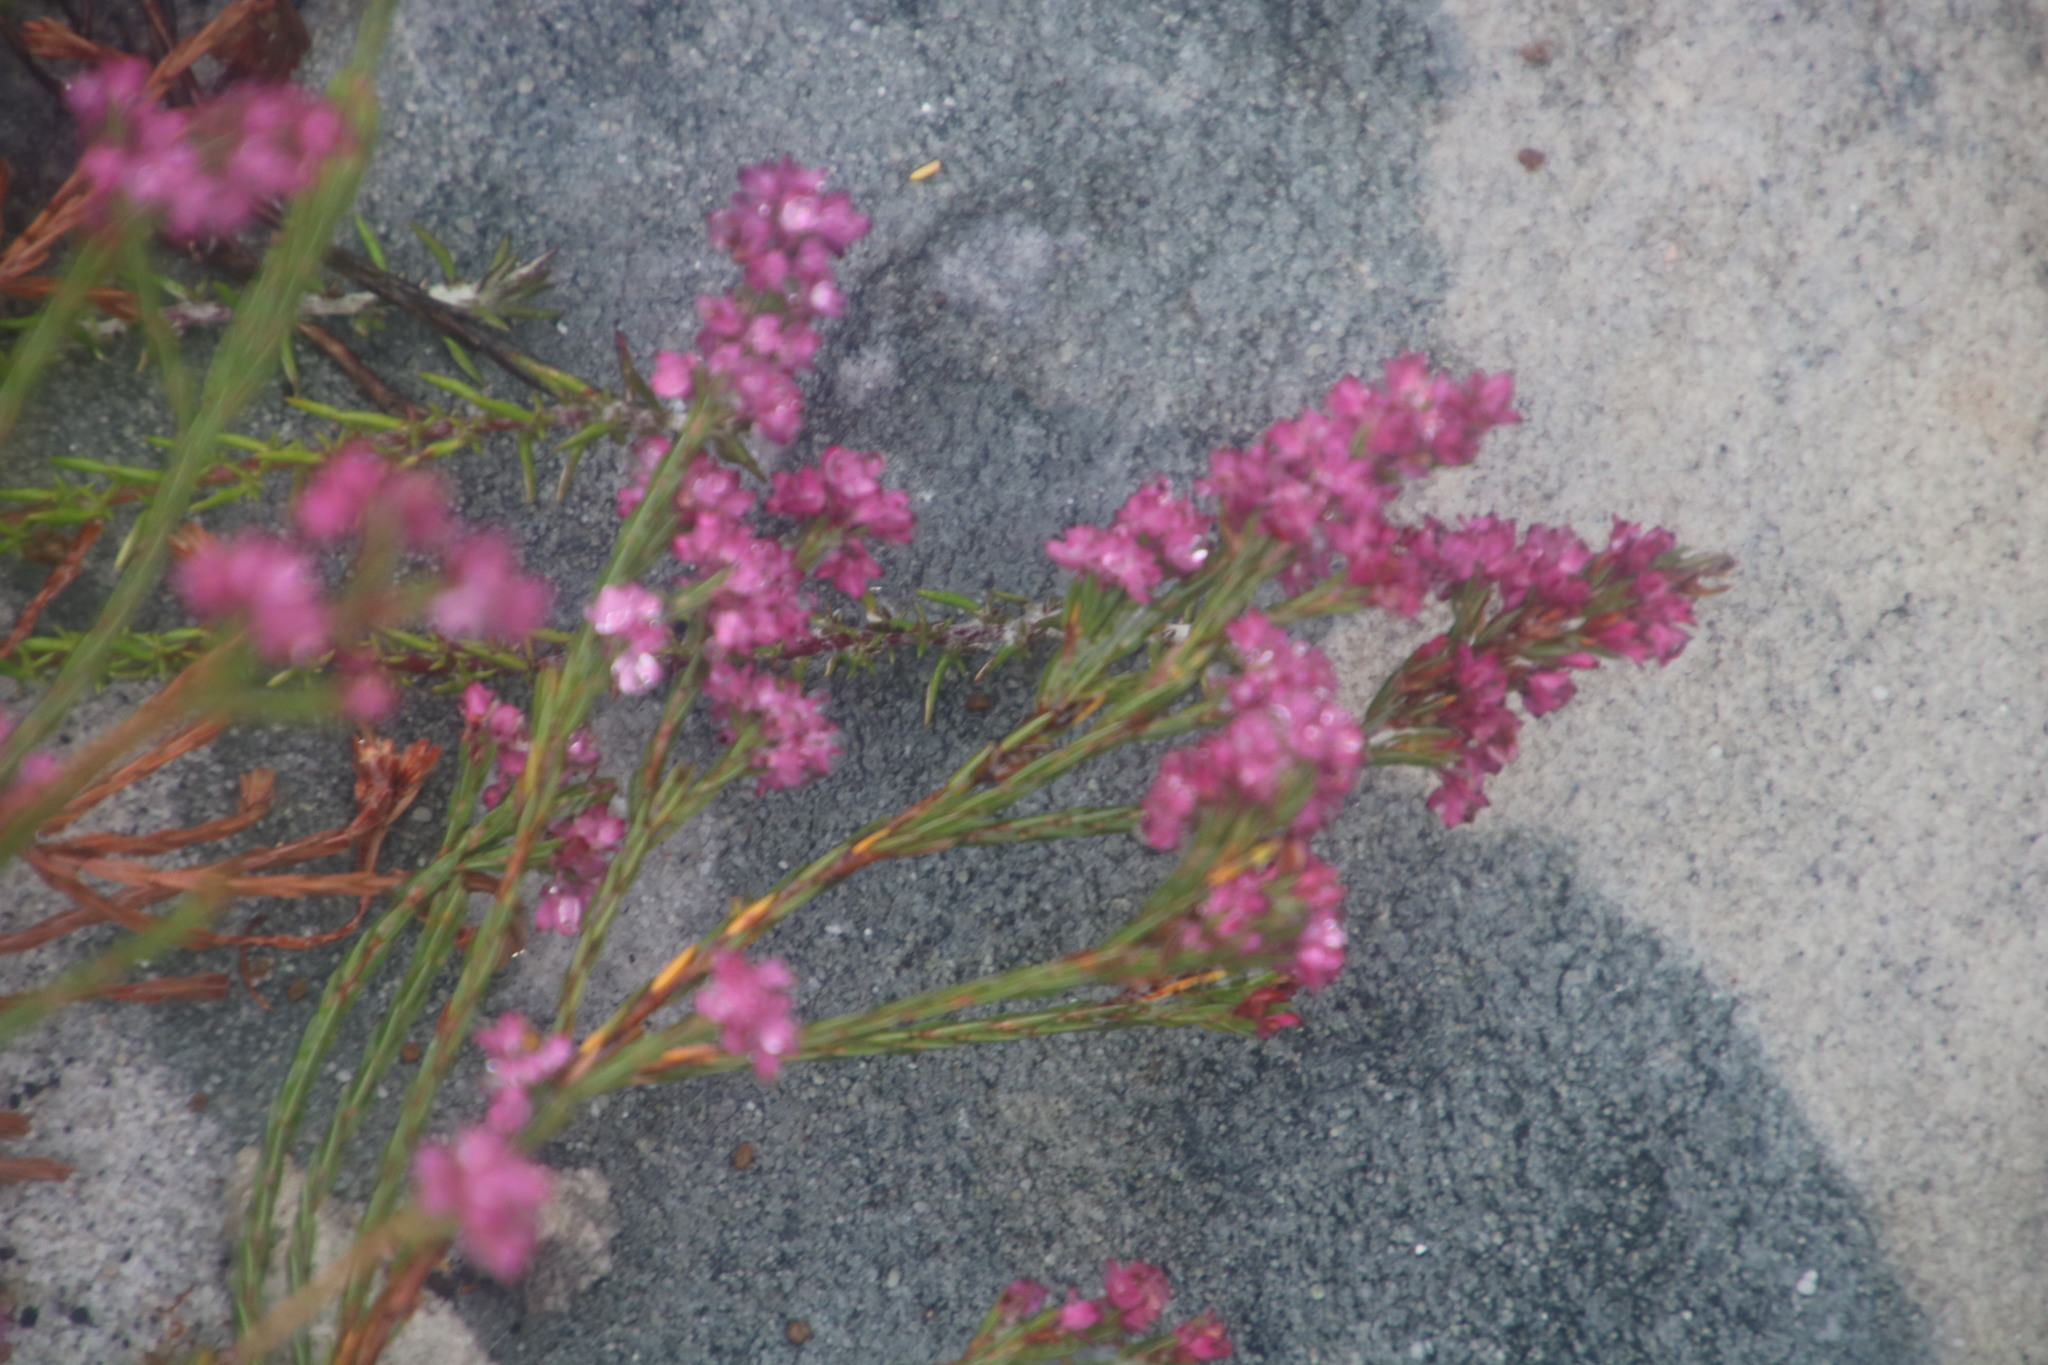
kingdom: Plantae
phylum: Tracheophyta
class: Magnoliopsida
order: Ericales
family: Ericaceae
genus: Erica
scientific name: Erica corifolia
